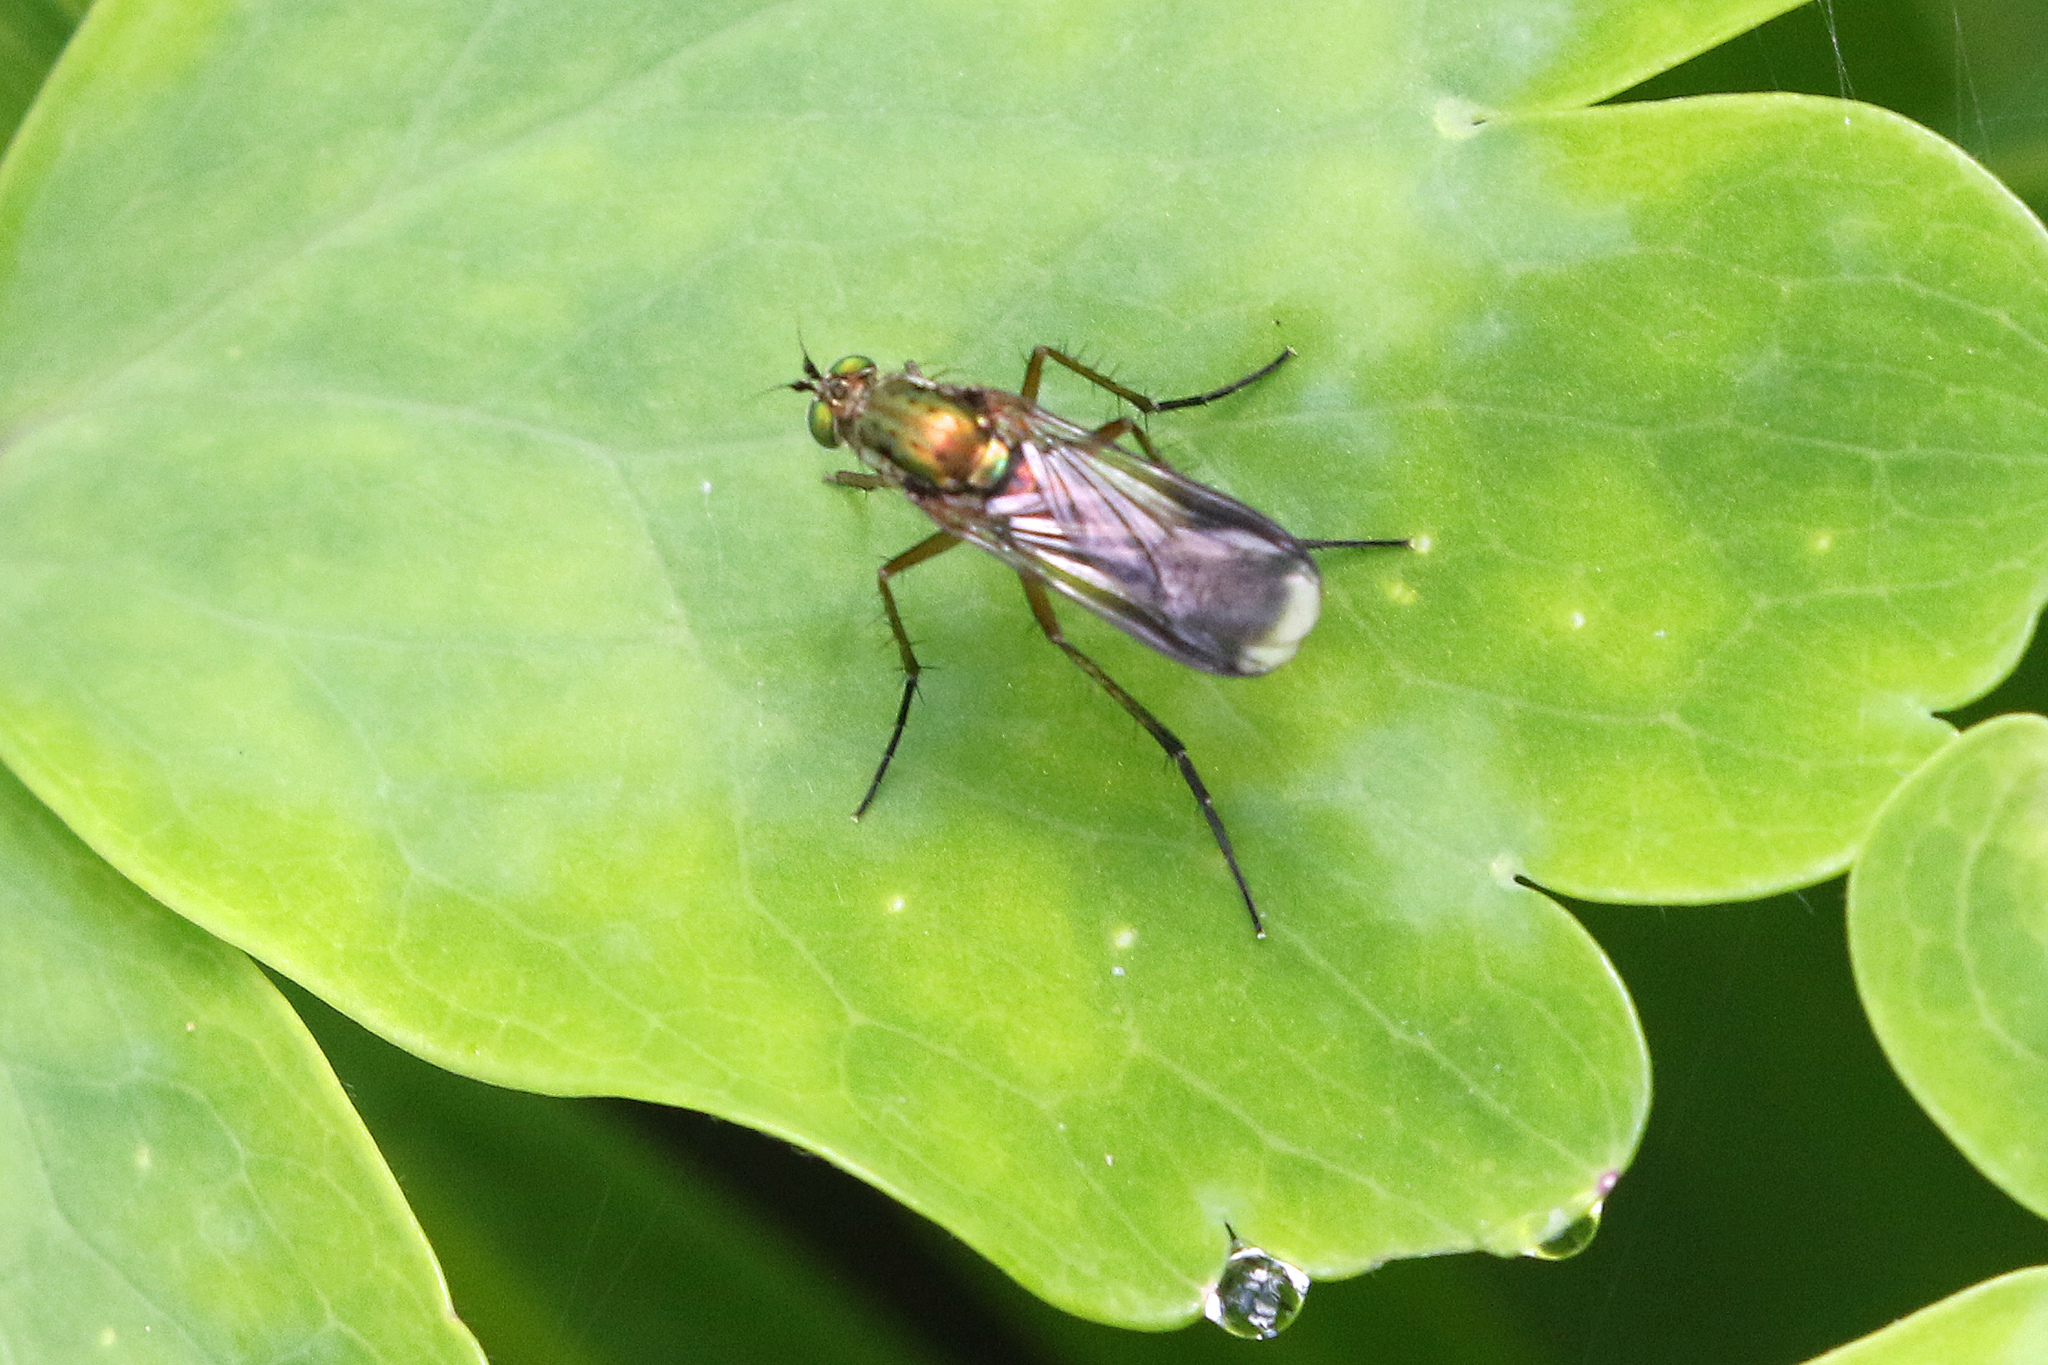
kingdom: Animalia
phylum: Arthropoda
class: Insecta
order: Diptera
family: Dolichopodidae
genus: Poecilobothrus
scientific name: Poecilobothrus nobilitatus
